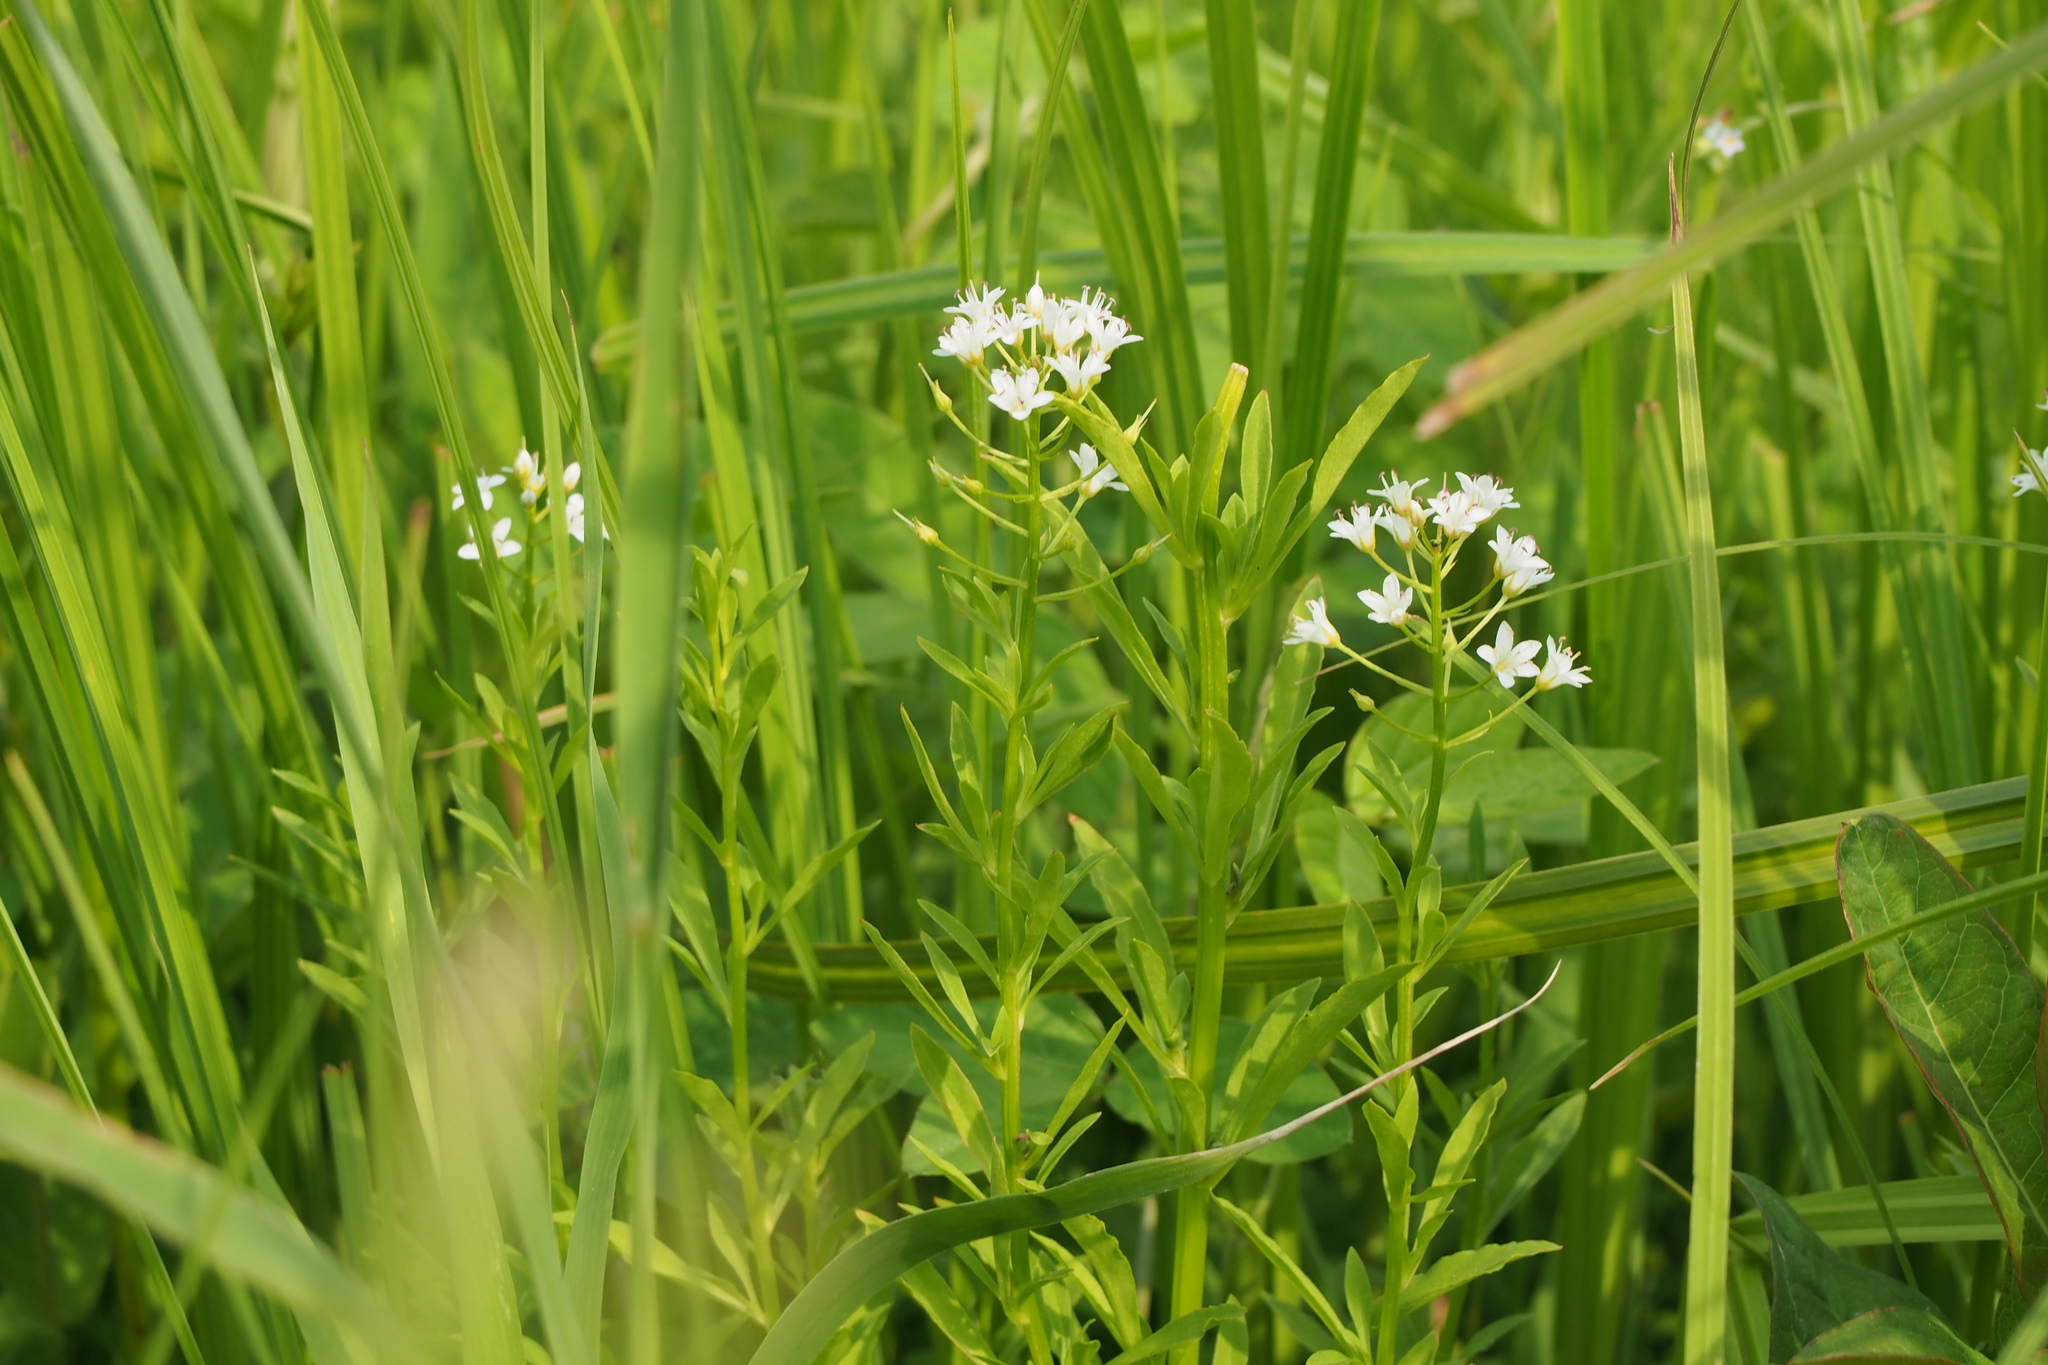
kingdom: Plantae
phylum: Tracheophyta
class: Magnoliopsida
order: Ericales
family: Primulaceae
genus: Lysimachia
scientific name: Lysimachia leucantha
